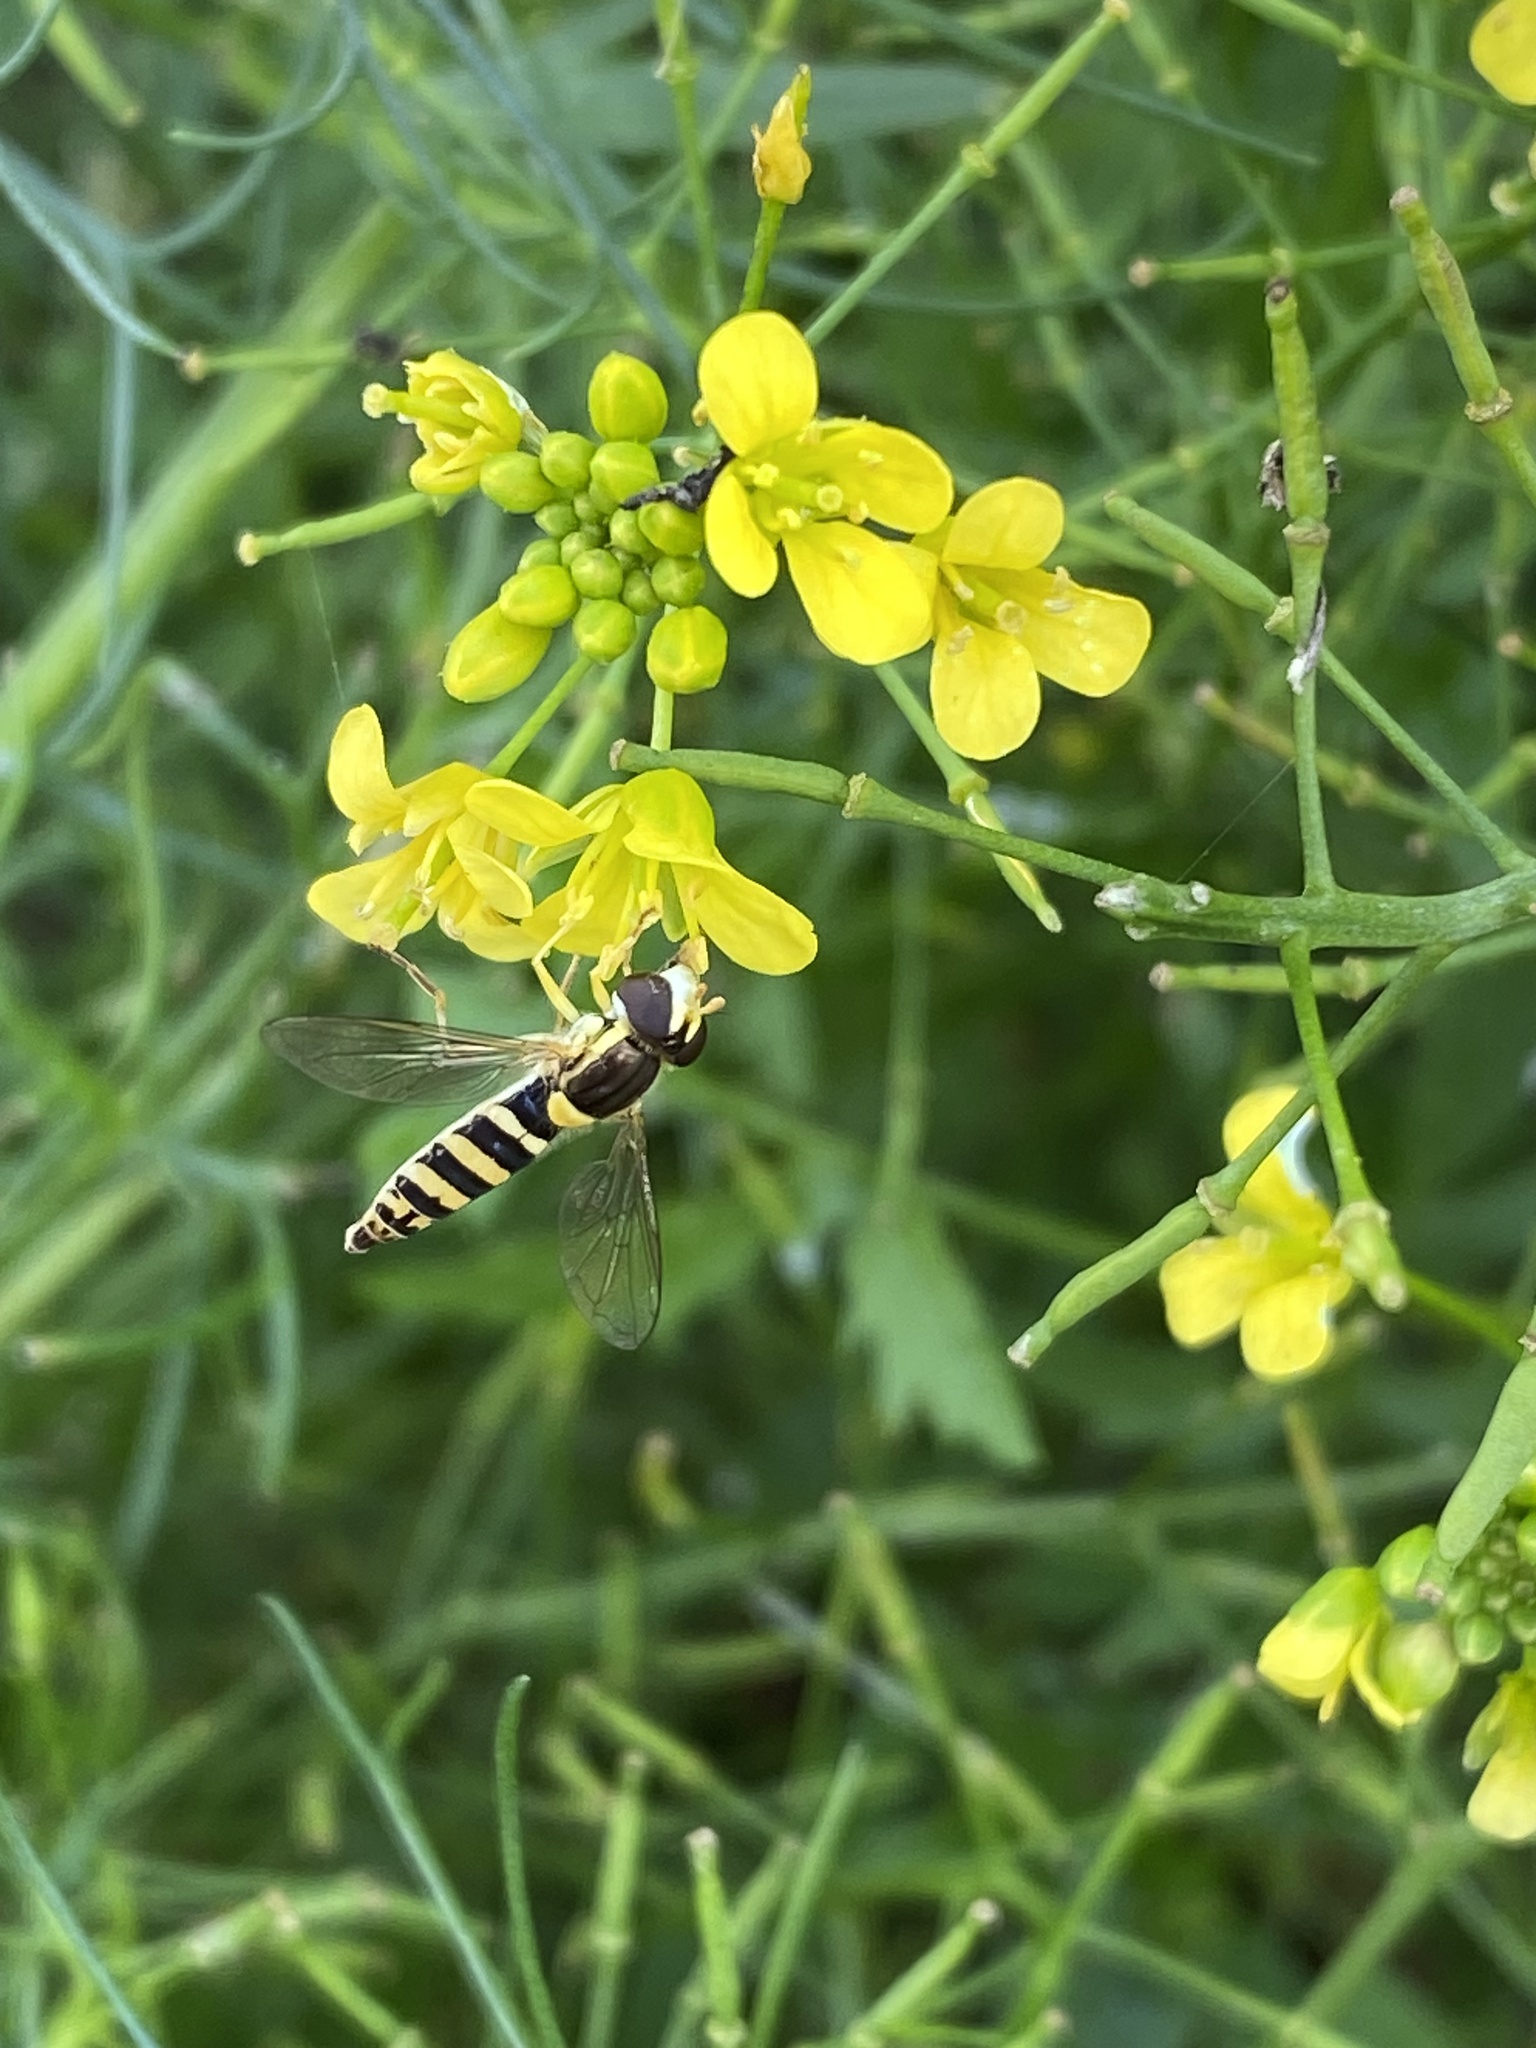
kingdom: Animalia
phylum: Arthropoda
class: Insecta
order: Diptera
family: Syrphidae
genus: Sphaerophoria
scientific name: Sphaerophoria
